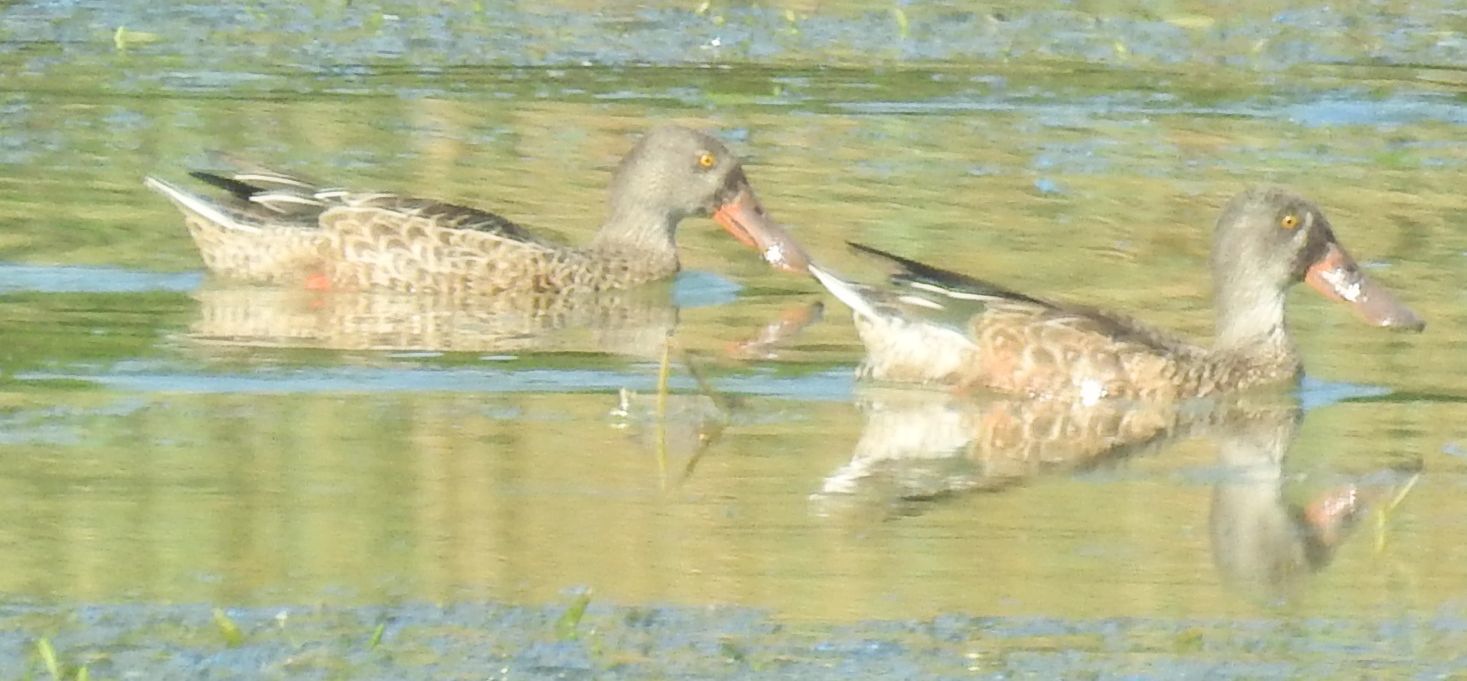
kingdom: Animalia
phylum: Chordata
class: Aves
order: Anseriformes
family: Anatidae
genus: Spatula
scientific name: Spatula clypeata
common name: Northern shoveler
